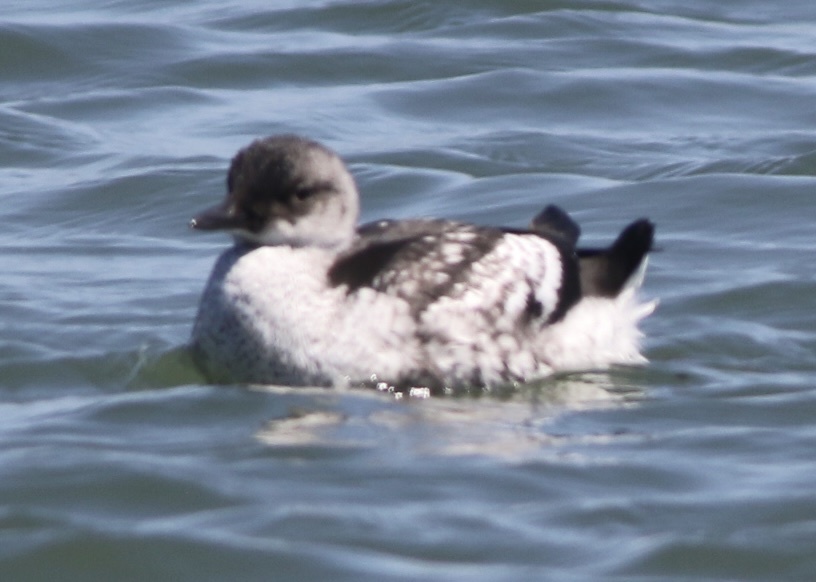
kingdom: Animalia
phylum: Chordata
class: Aves
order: Charadriiformes
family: Alcidae
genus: Cepphus
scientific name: Cepphus columba
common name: Pigeon guillemot
